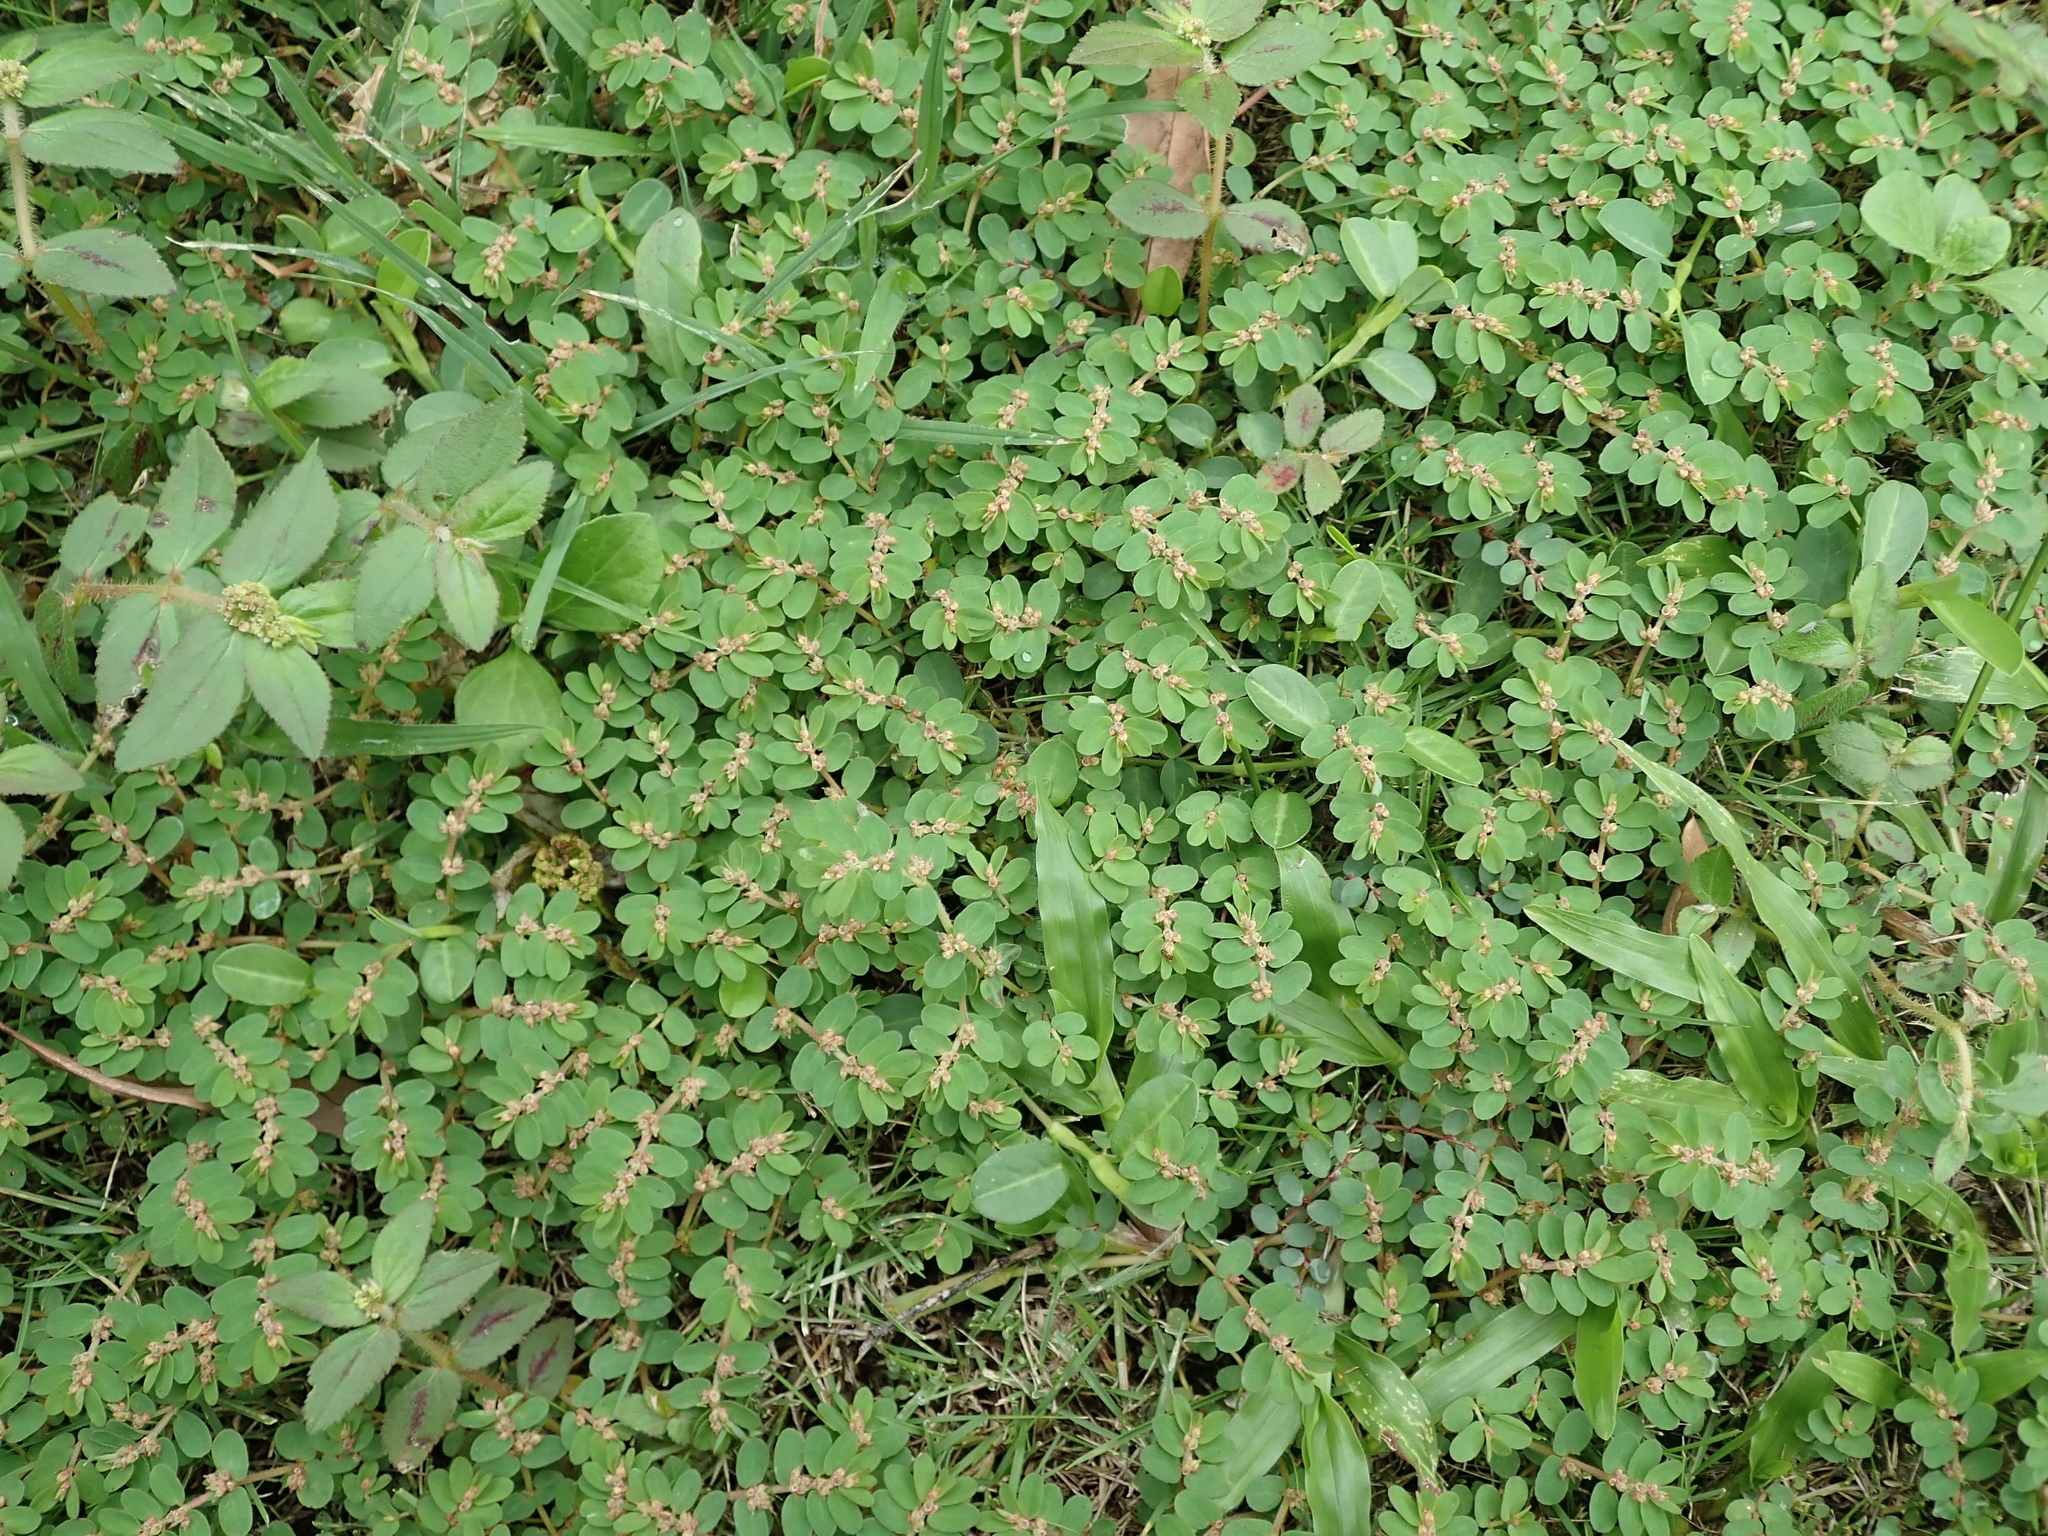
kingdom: Plantae
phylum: Tracheophyta
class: Magnoliopsida
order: Malpighiales
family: Euphorbiaceae
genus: Euphorbia
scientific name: Euphorbia thymifolia
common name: Gulf sandmat
